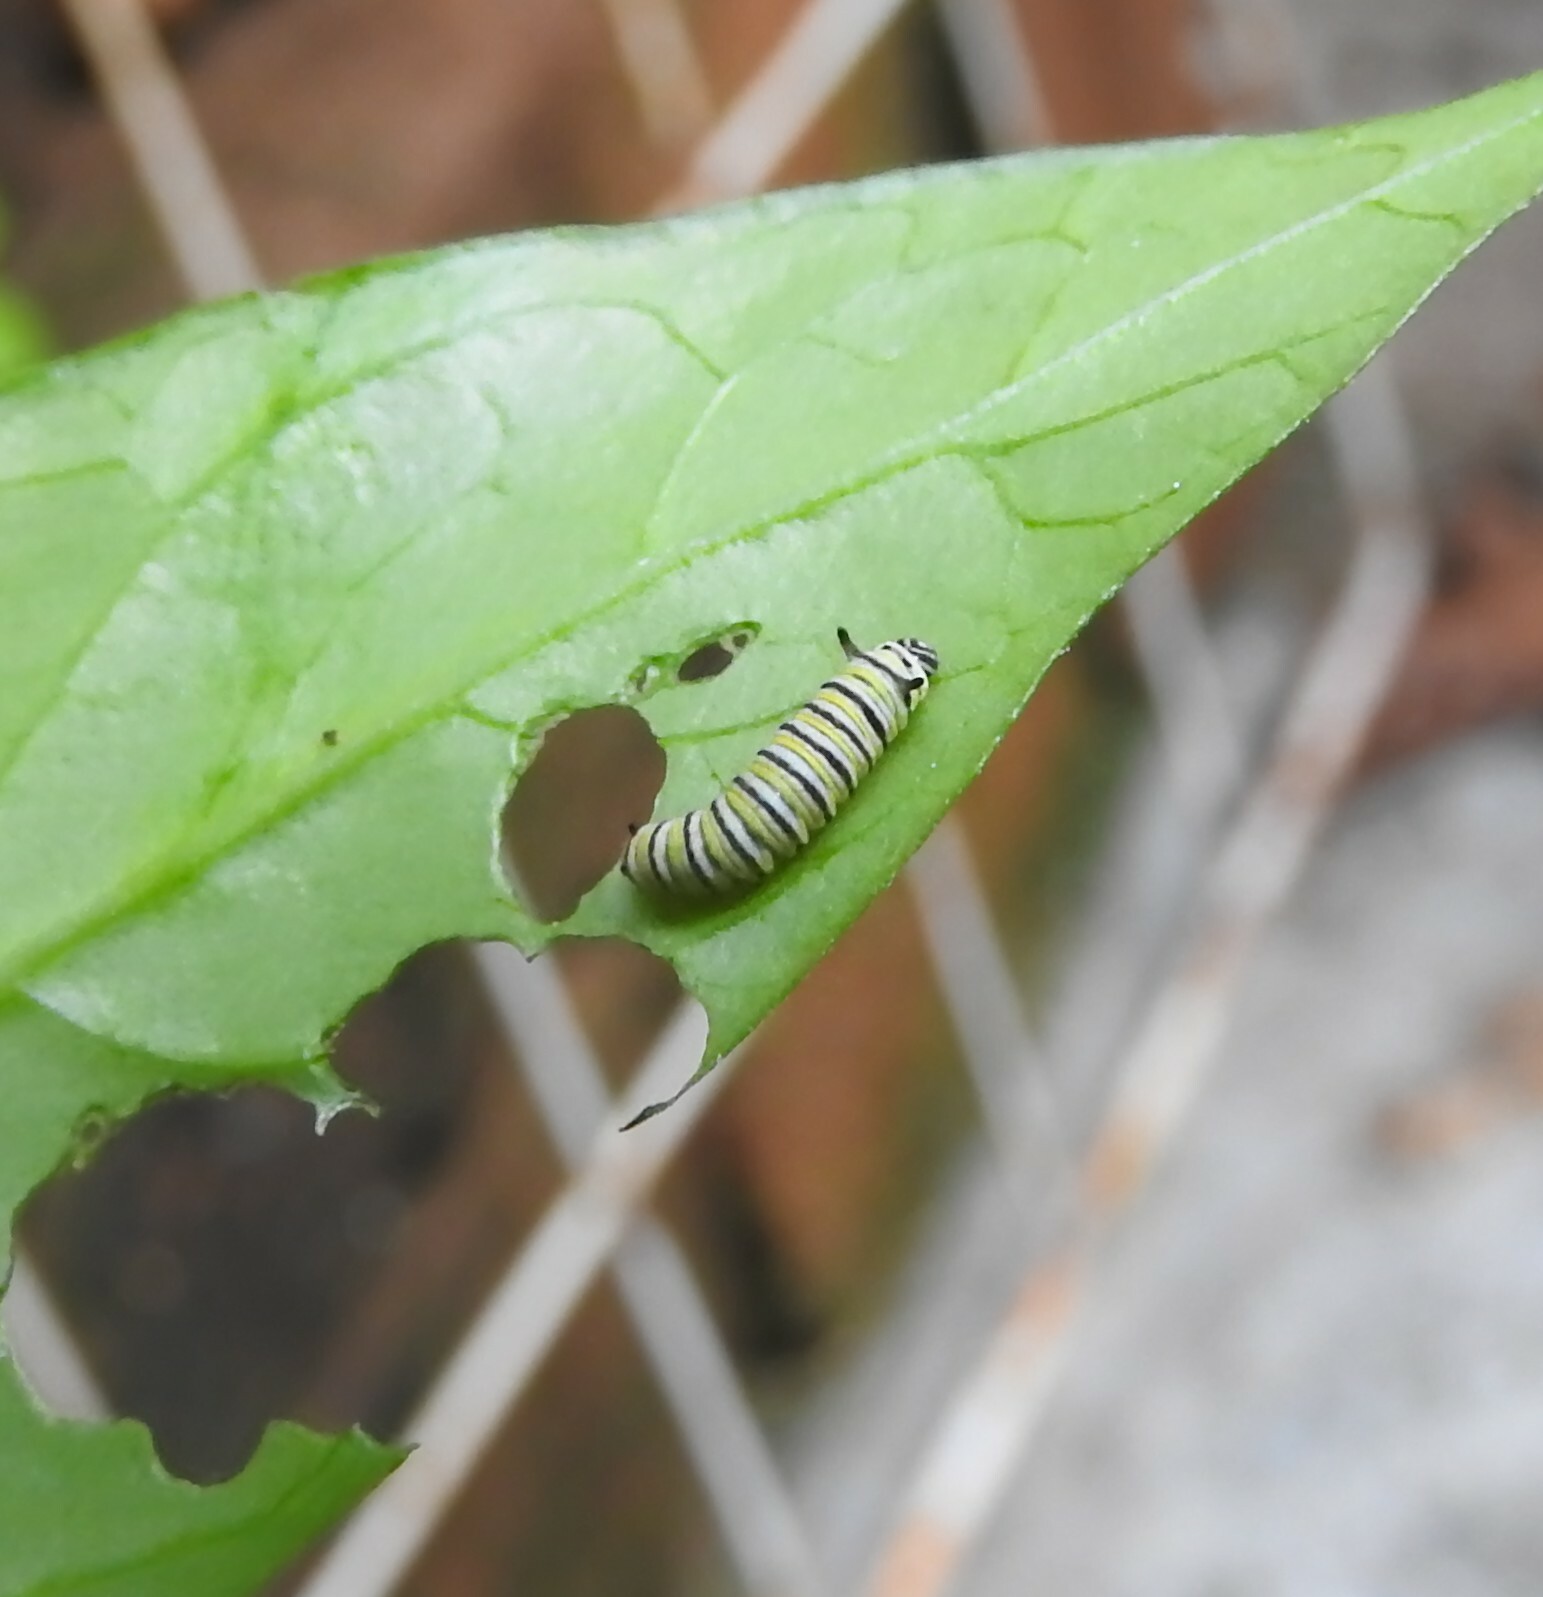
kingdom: Animalia
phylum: Arthropoda
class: Insecta
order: Lepidoptera
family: Nymphalidae
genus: Danaus
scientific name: Danaus plexippus
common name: Monarch
